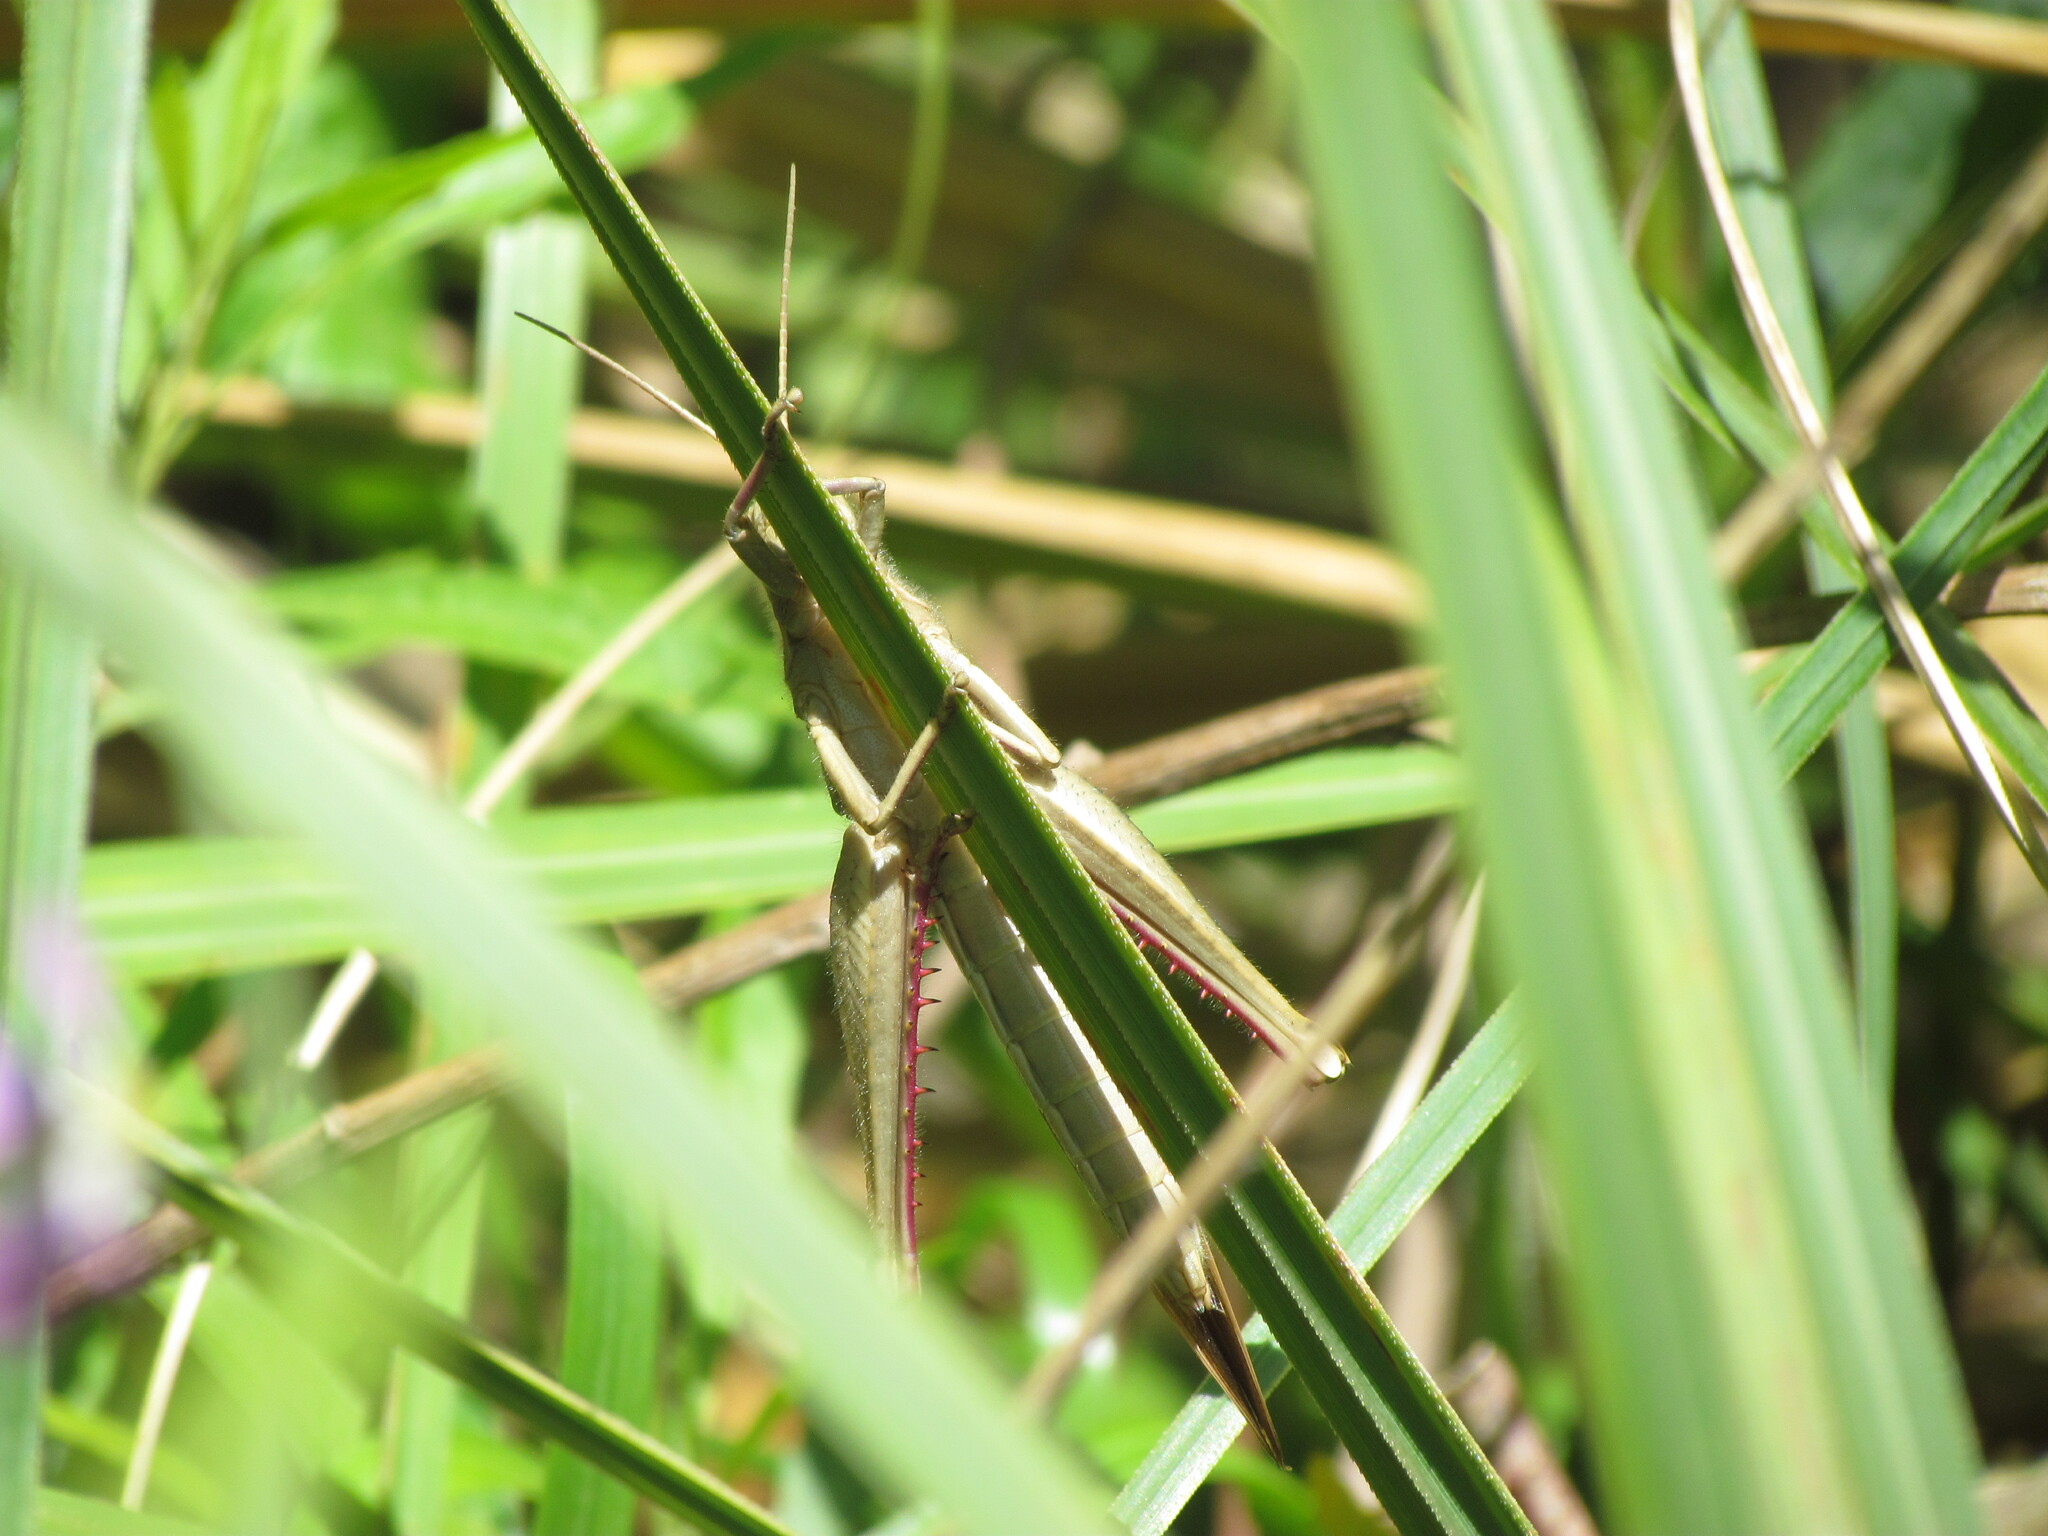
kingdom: Animalia
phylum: Arthropoda
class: Insecta
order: Orthoptera
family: Acrididae
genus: Schistocerca
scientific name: Schistocerca flavofasciata
